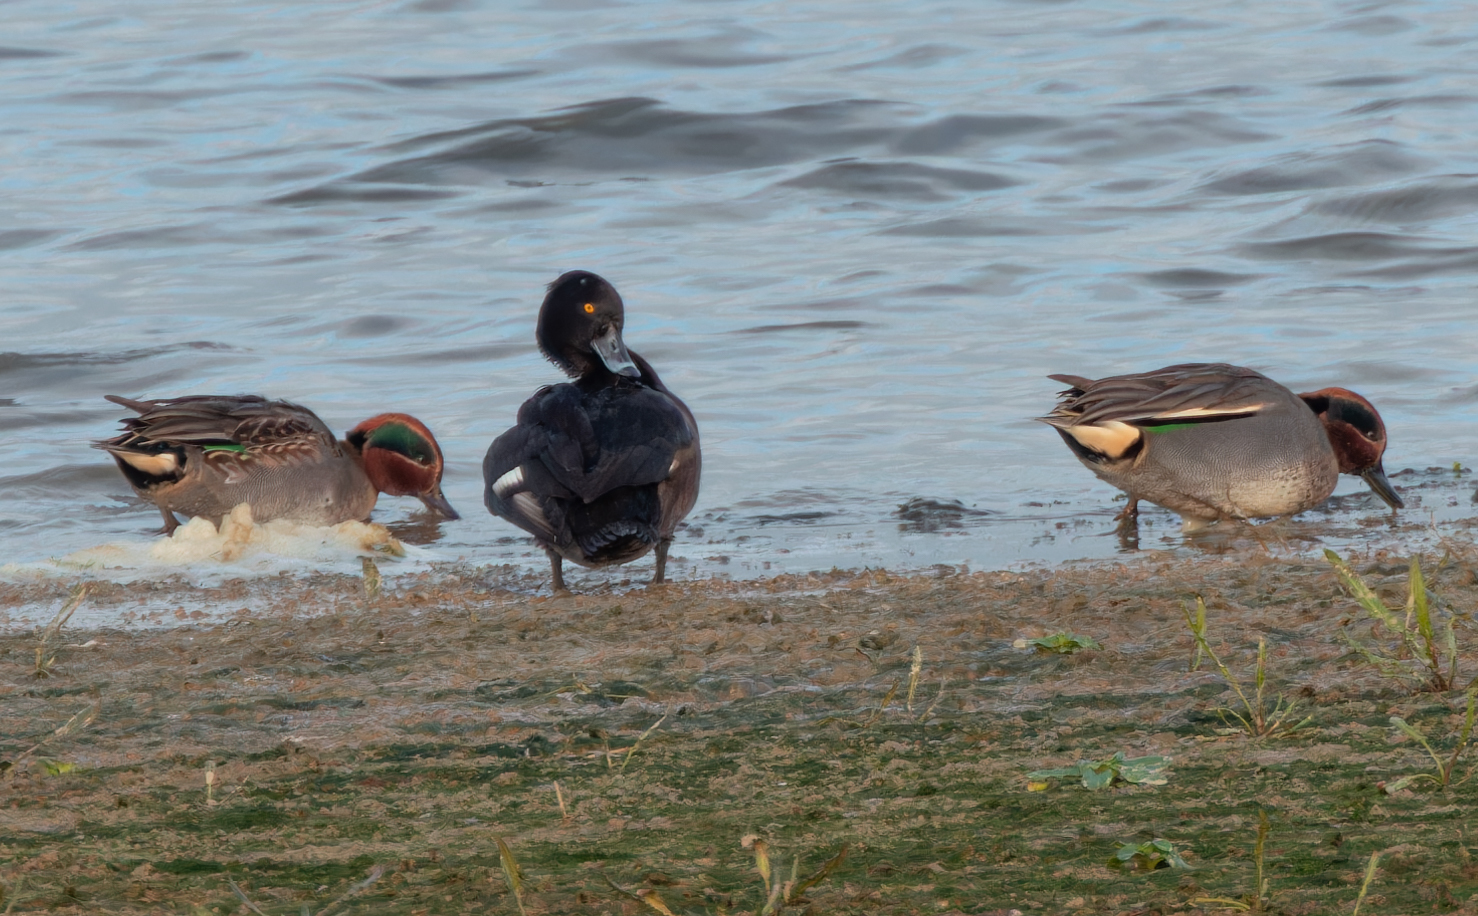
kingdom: Animalia
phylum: Chordata
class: Aves
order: Anseriformes
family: Anatidae
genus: Aythya
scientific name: Aythya fuligula
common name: Tufted duck
